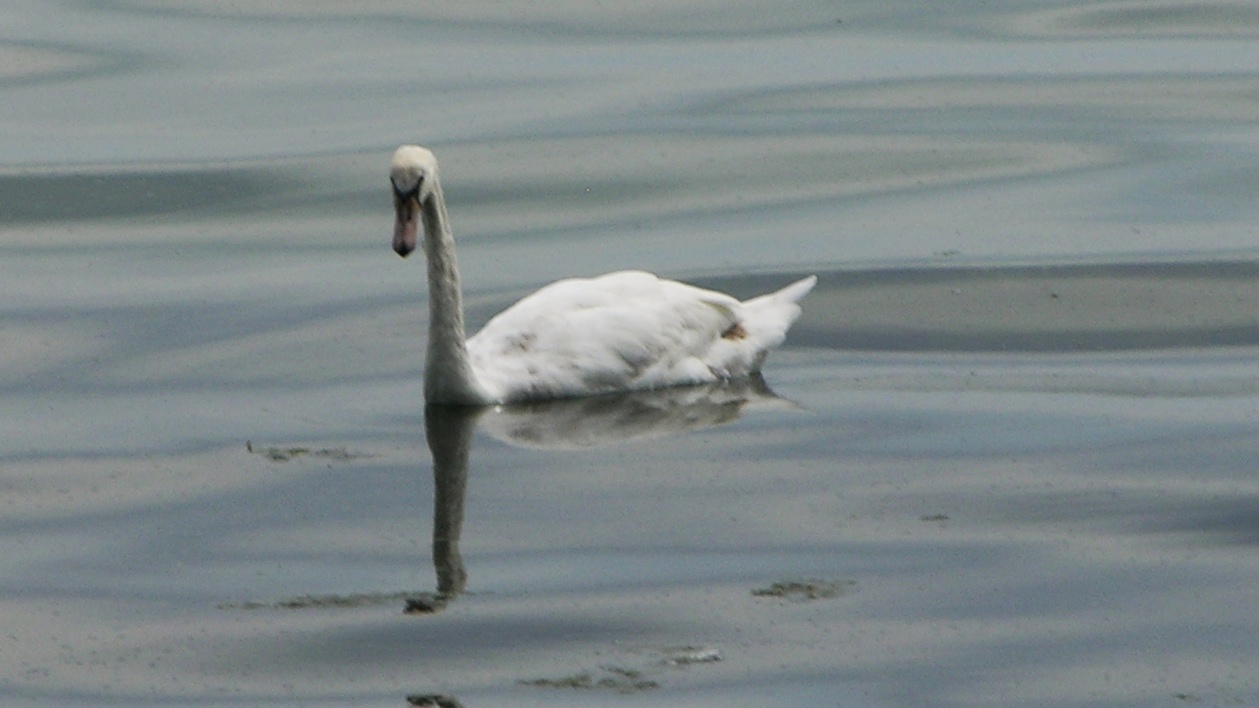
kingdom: Animalia
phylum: Chordata
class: Aves
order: Anseriformes
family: Anatidae
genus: Cygnus
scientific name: Cygnus olor
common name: Mute swan
